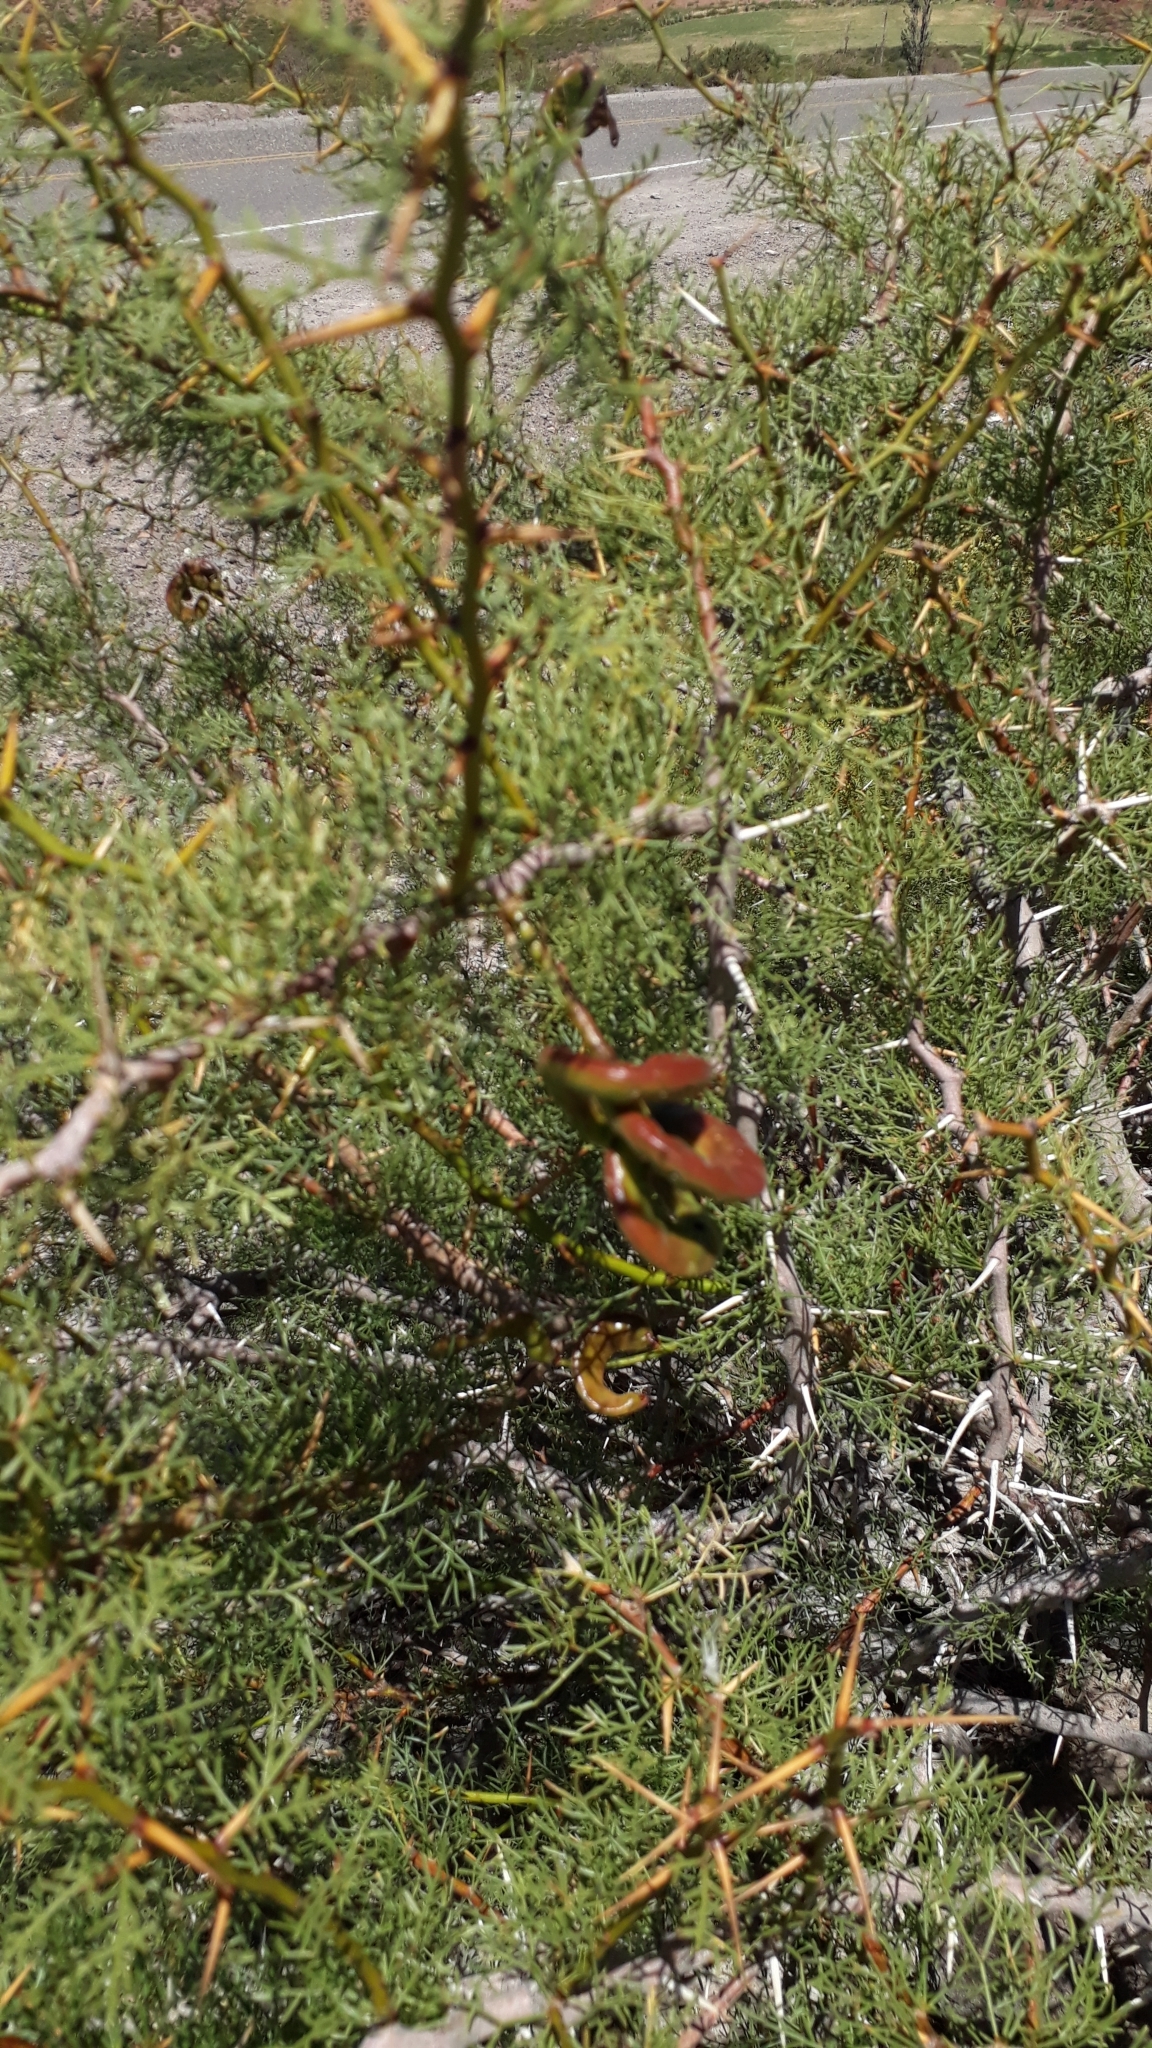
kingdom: Plantae
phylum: Tracheophyta
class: Magnoliopsida
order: Fabales
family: Fabaceae
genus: Prosopis
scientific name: Prosopis ruizlealii
